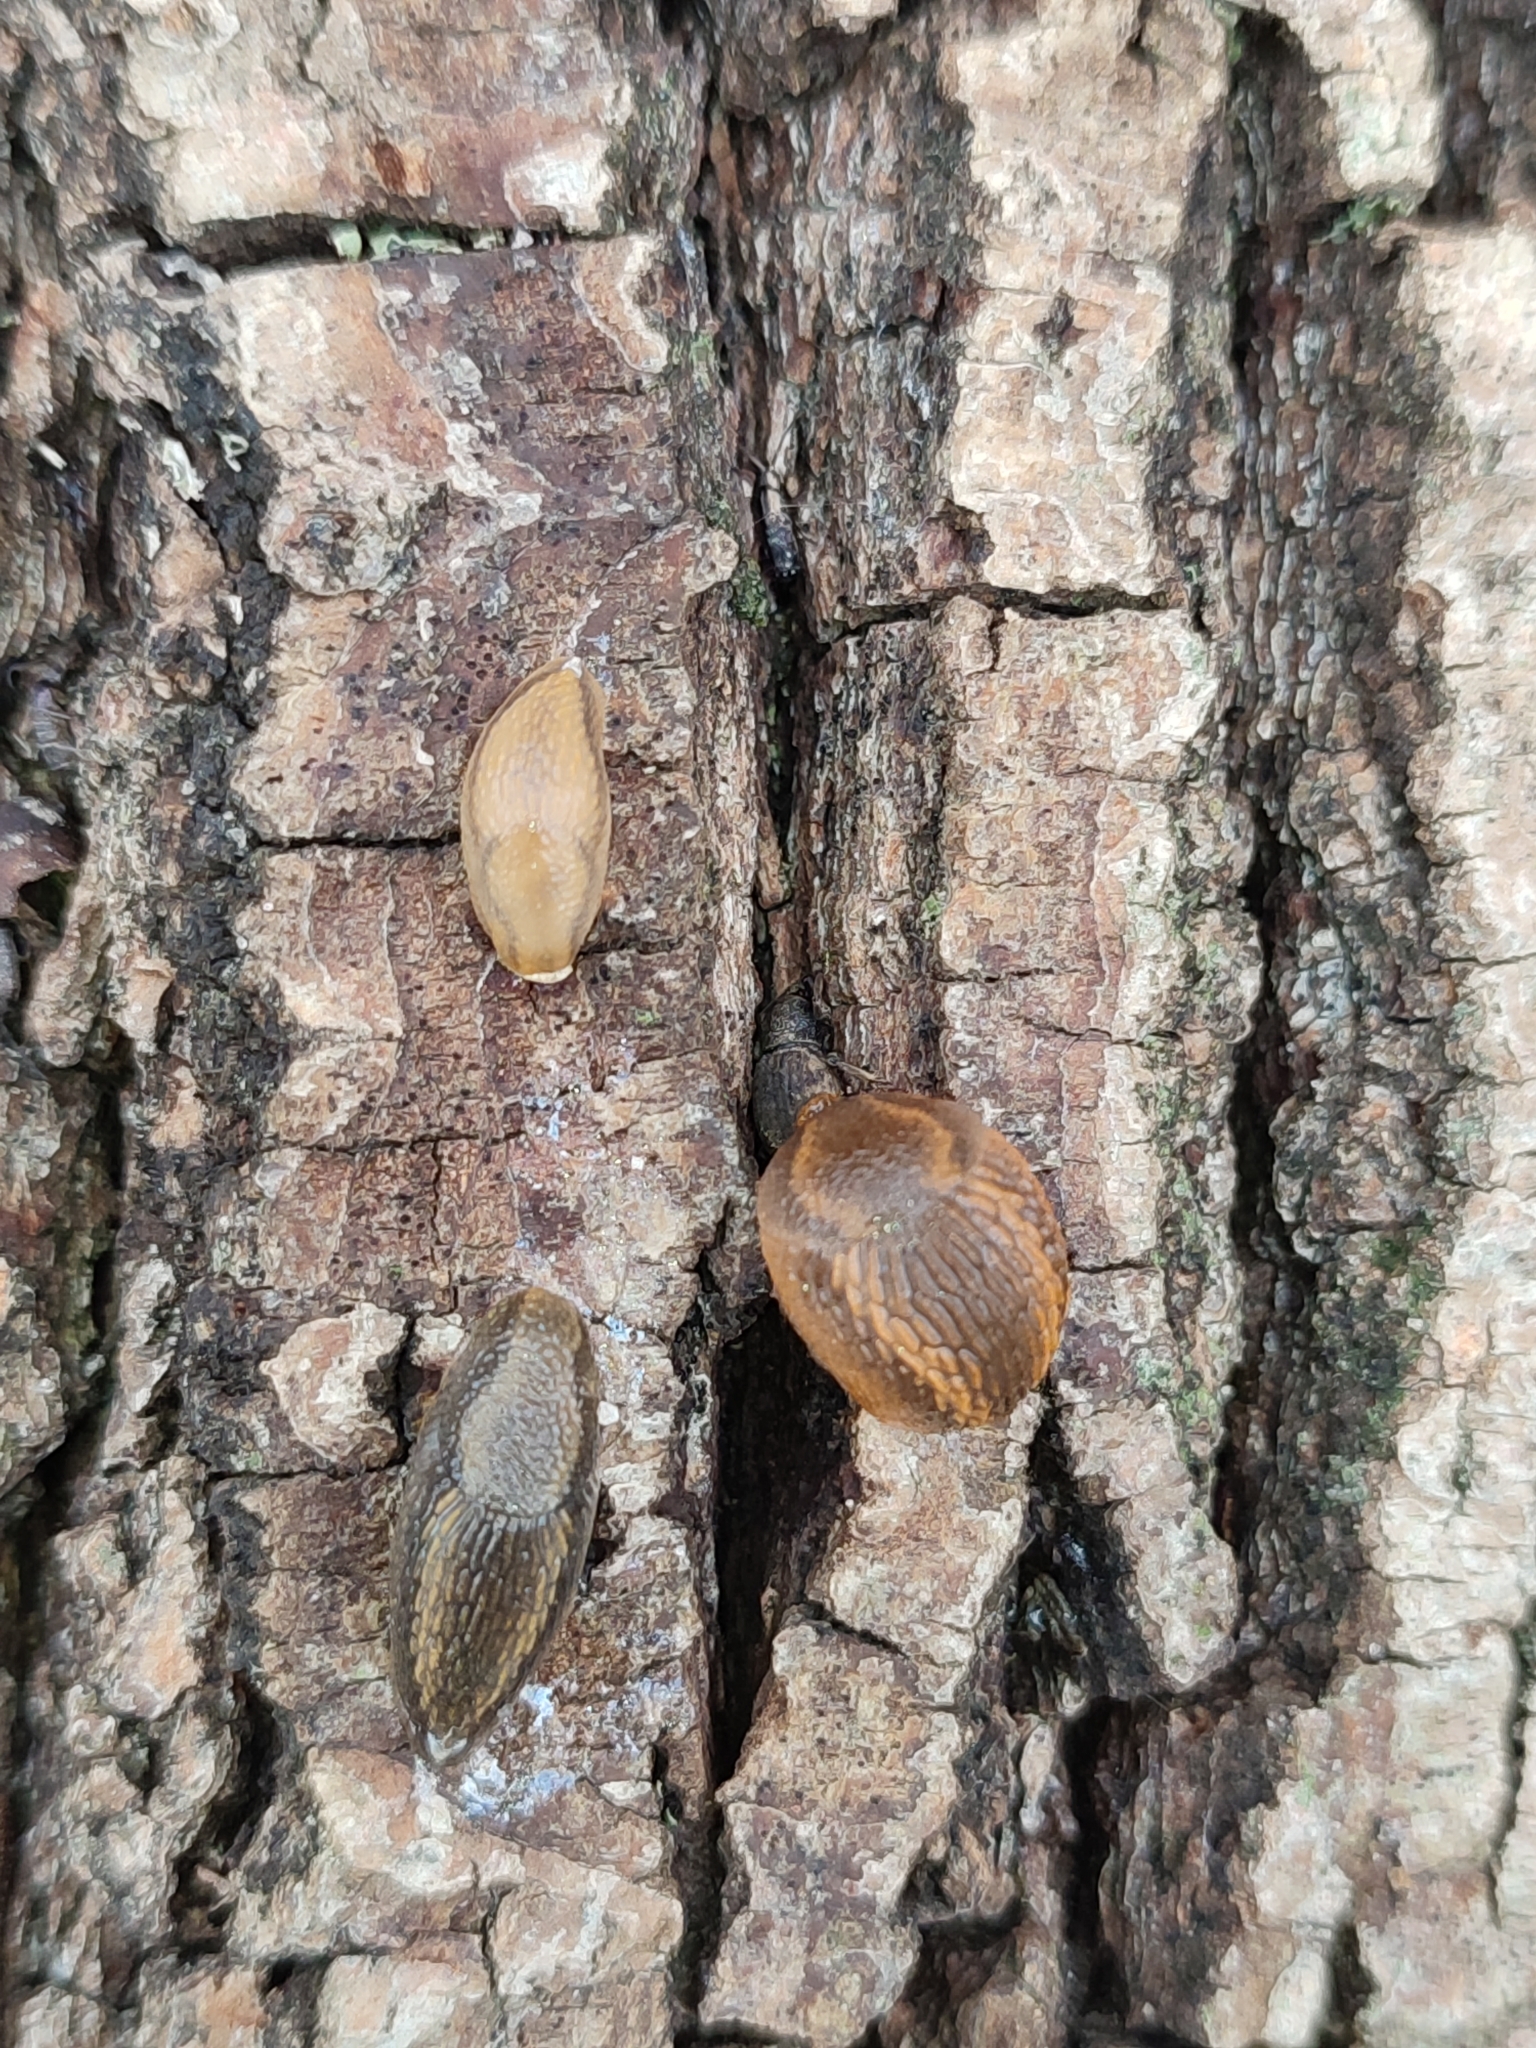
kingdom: Animalia
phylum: Mollusca
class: Gastropoda
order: Stylommatophora
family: Arionidae
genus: Arion
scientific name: Arion vulgaris
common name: Lusitanian slug
